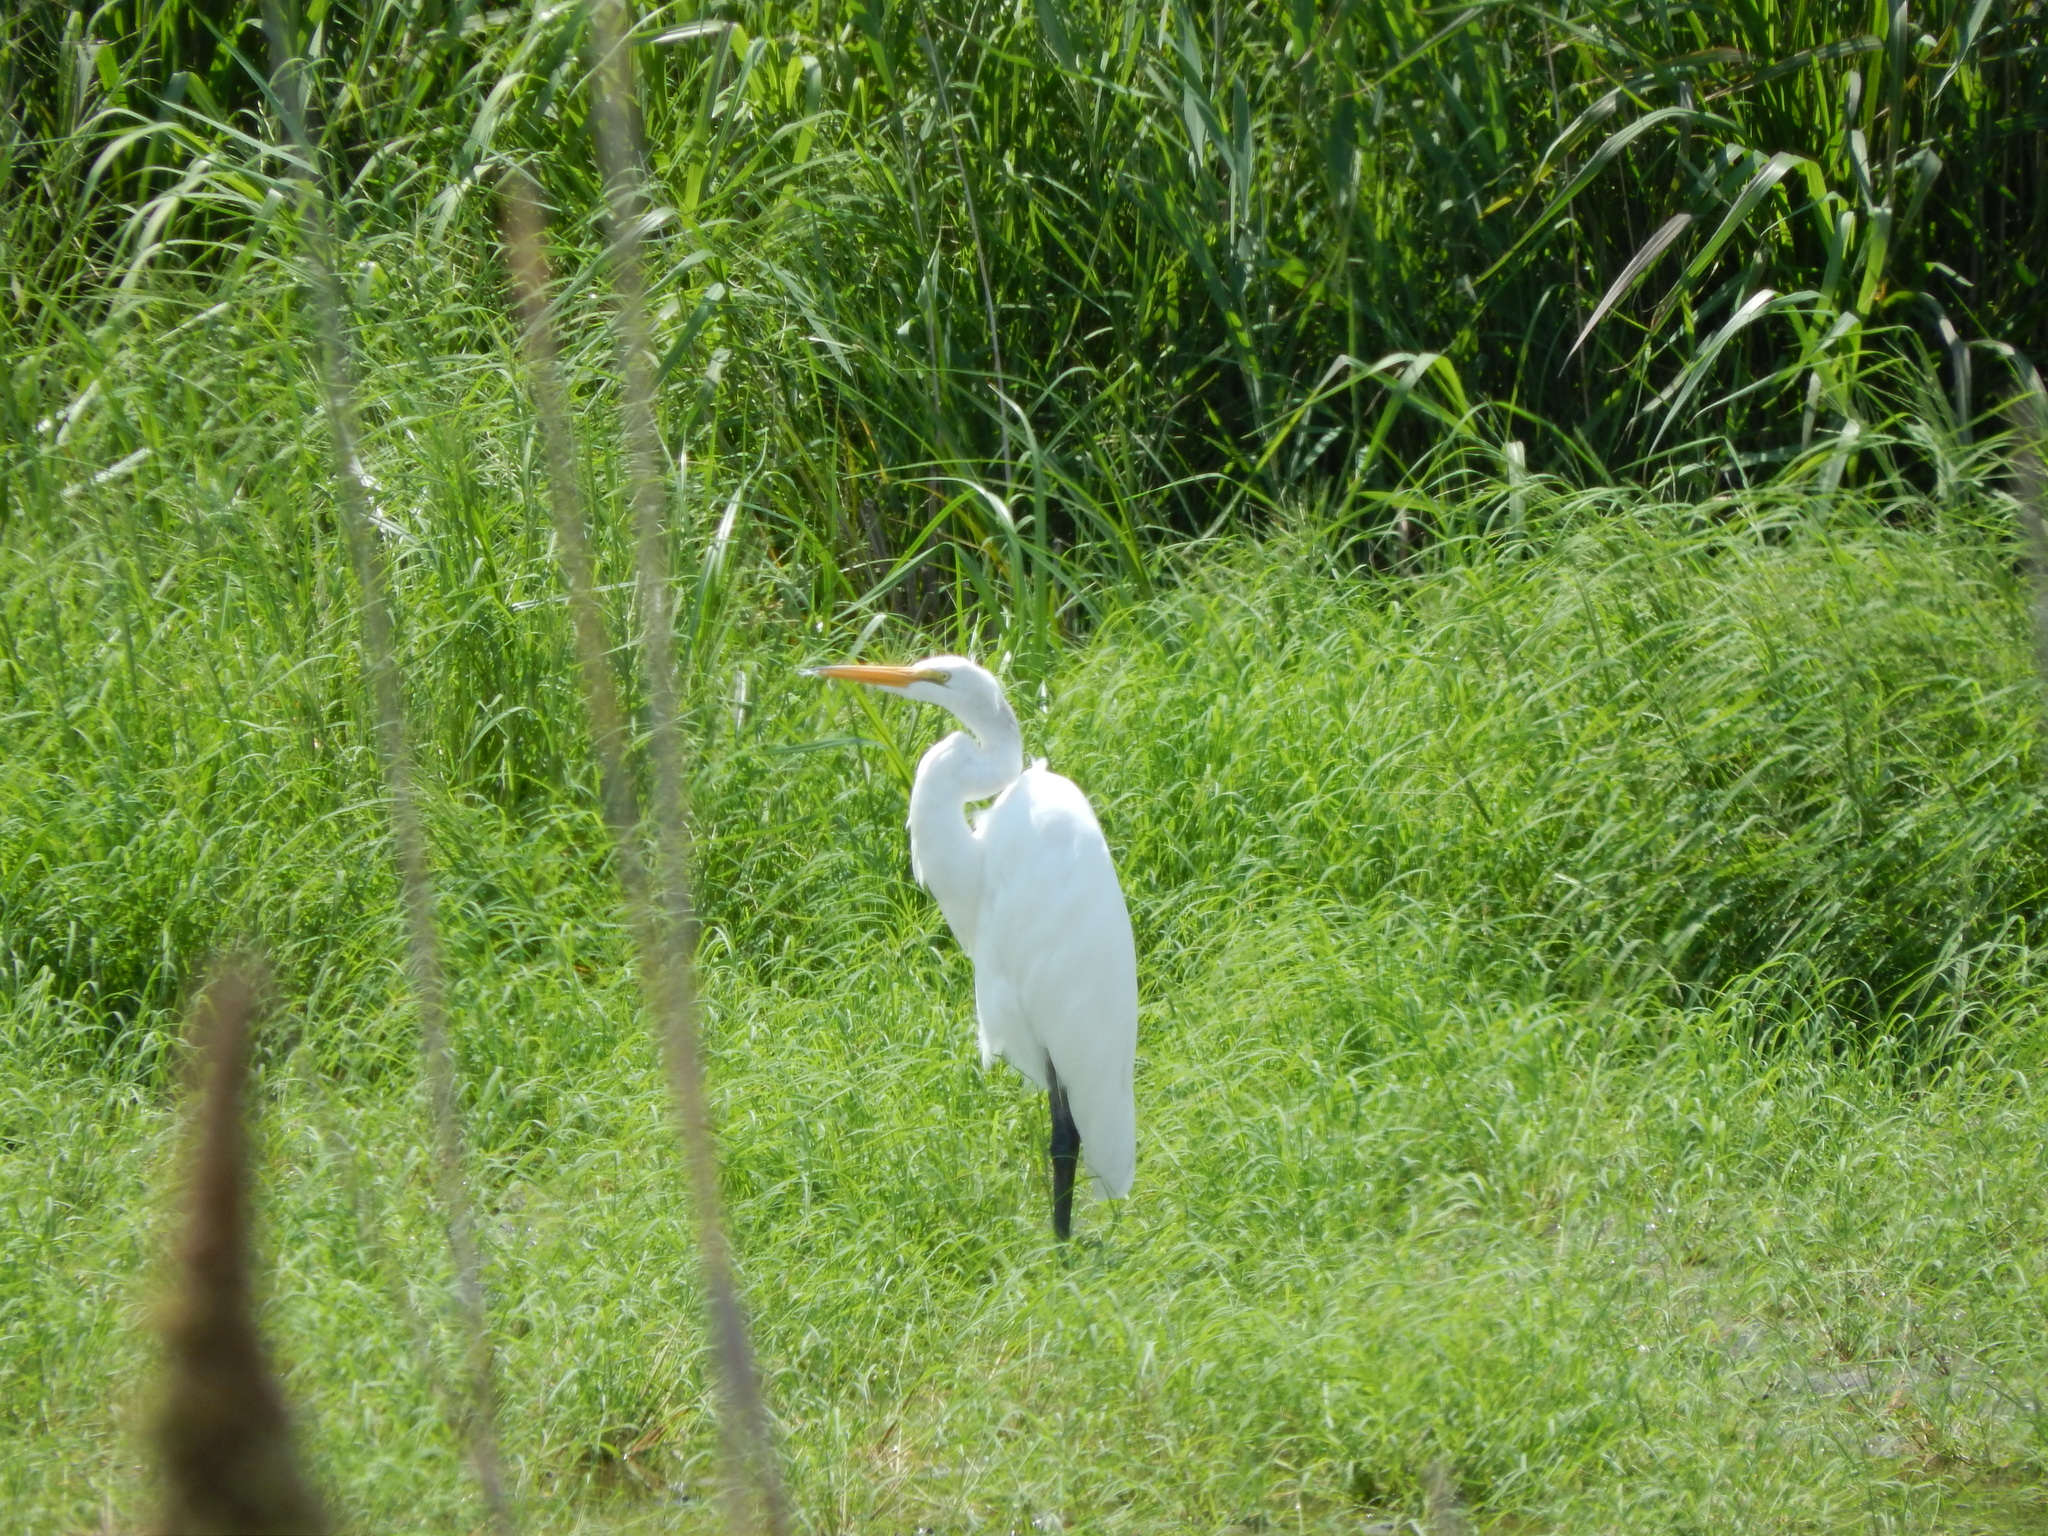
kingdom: Animalia
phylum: Chordata
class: Aves
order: Pelecaniformes
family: Ardeidae
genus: Ardea
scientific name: Ardea alba
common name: Great egret
